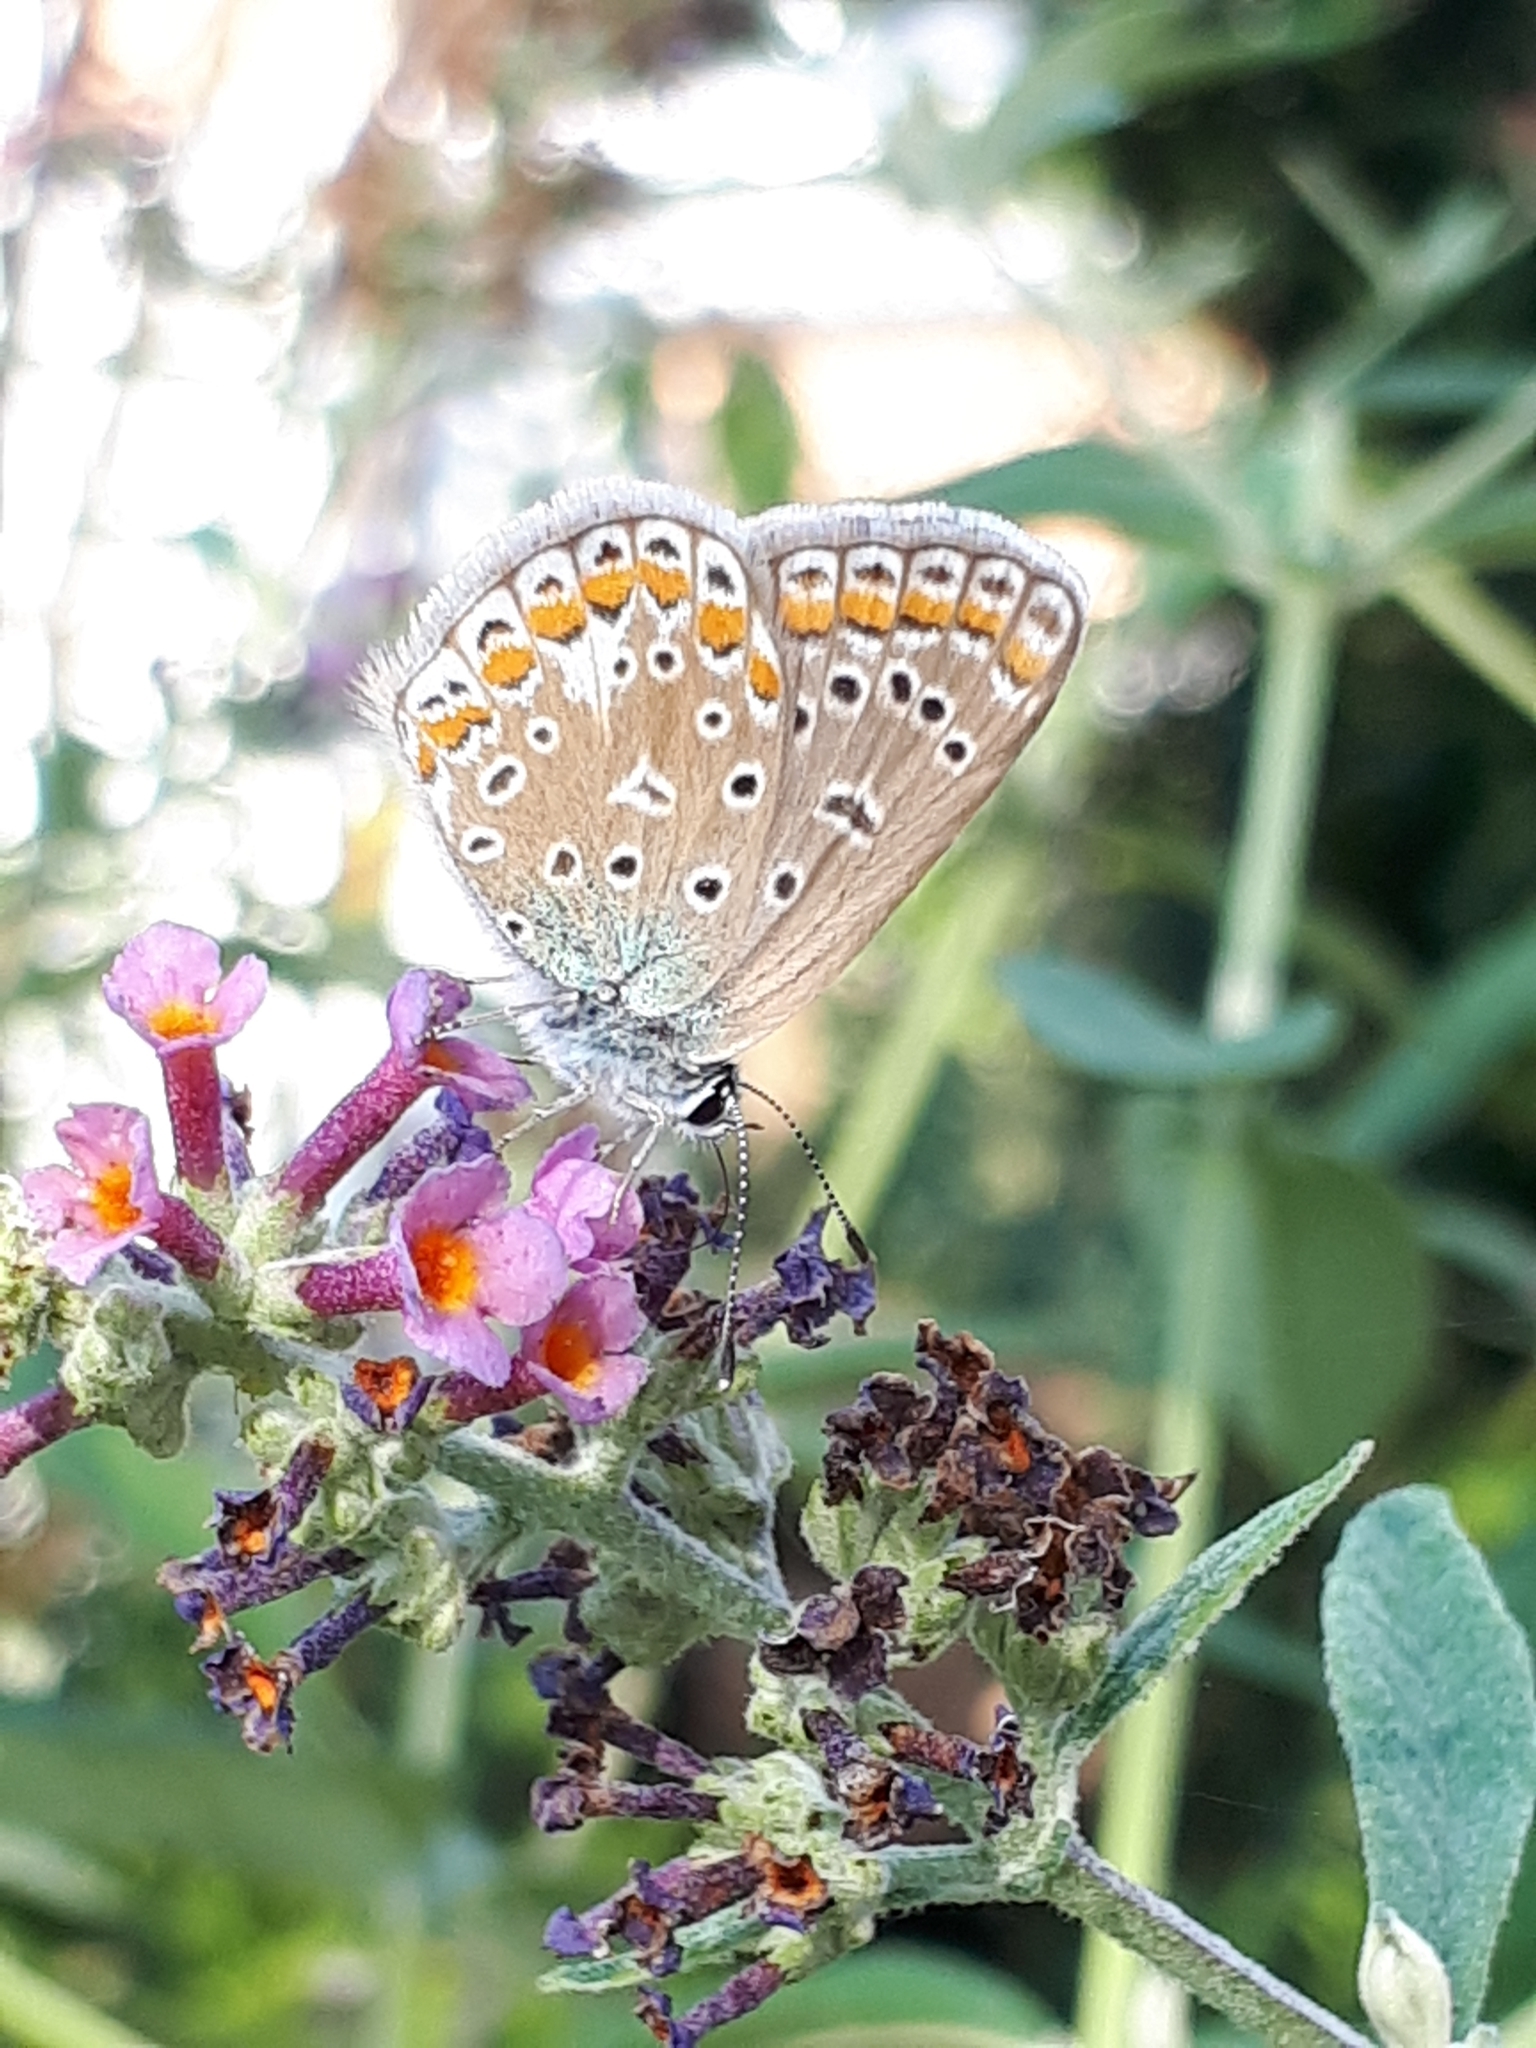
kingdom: Animalia
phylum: Arthropoda
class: Insecta
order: Lepidoptera
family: Lycaenidae
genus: Polyommatus
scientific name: Polyommatus icarus
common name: Common blue
